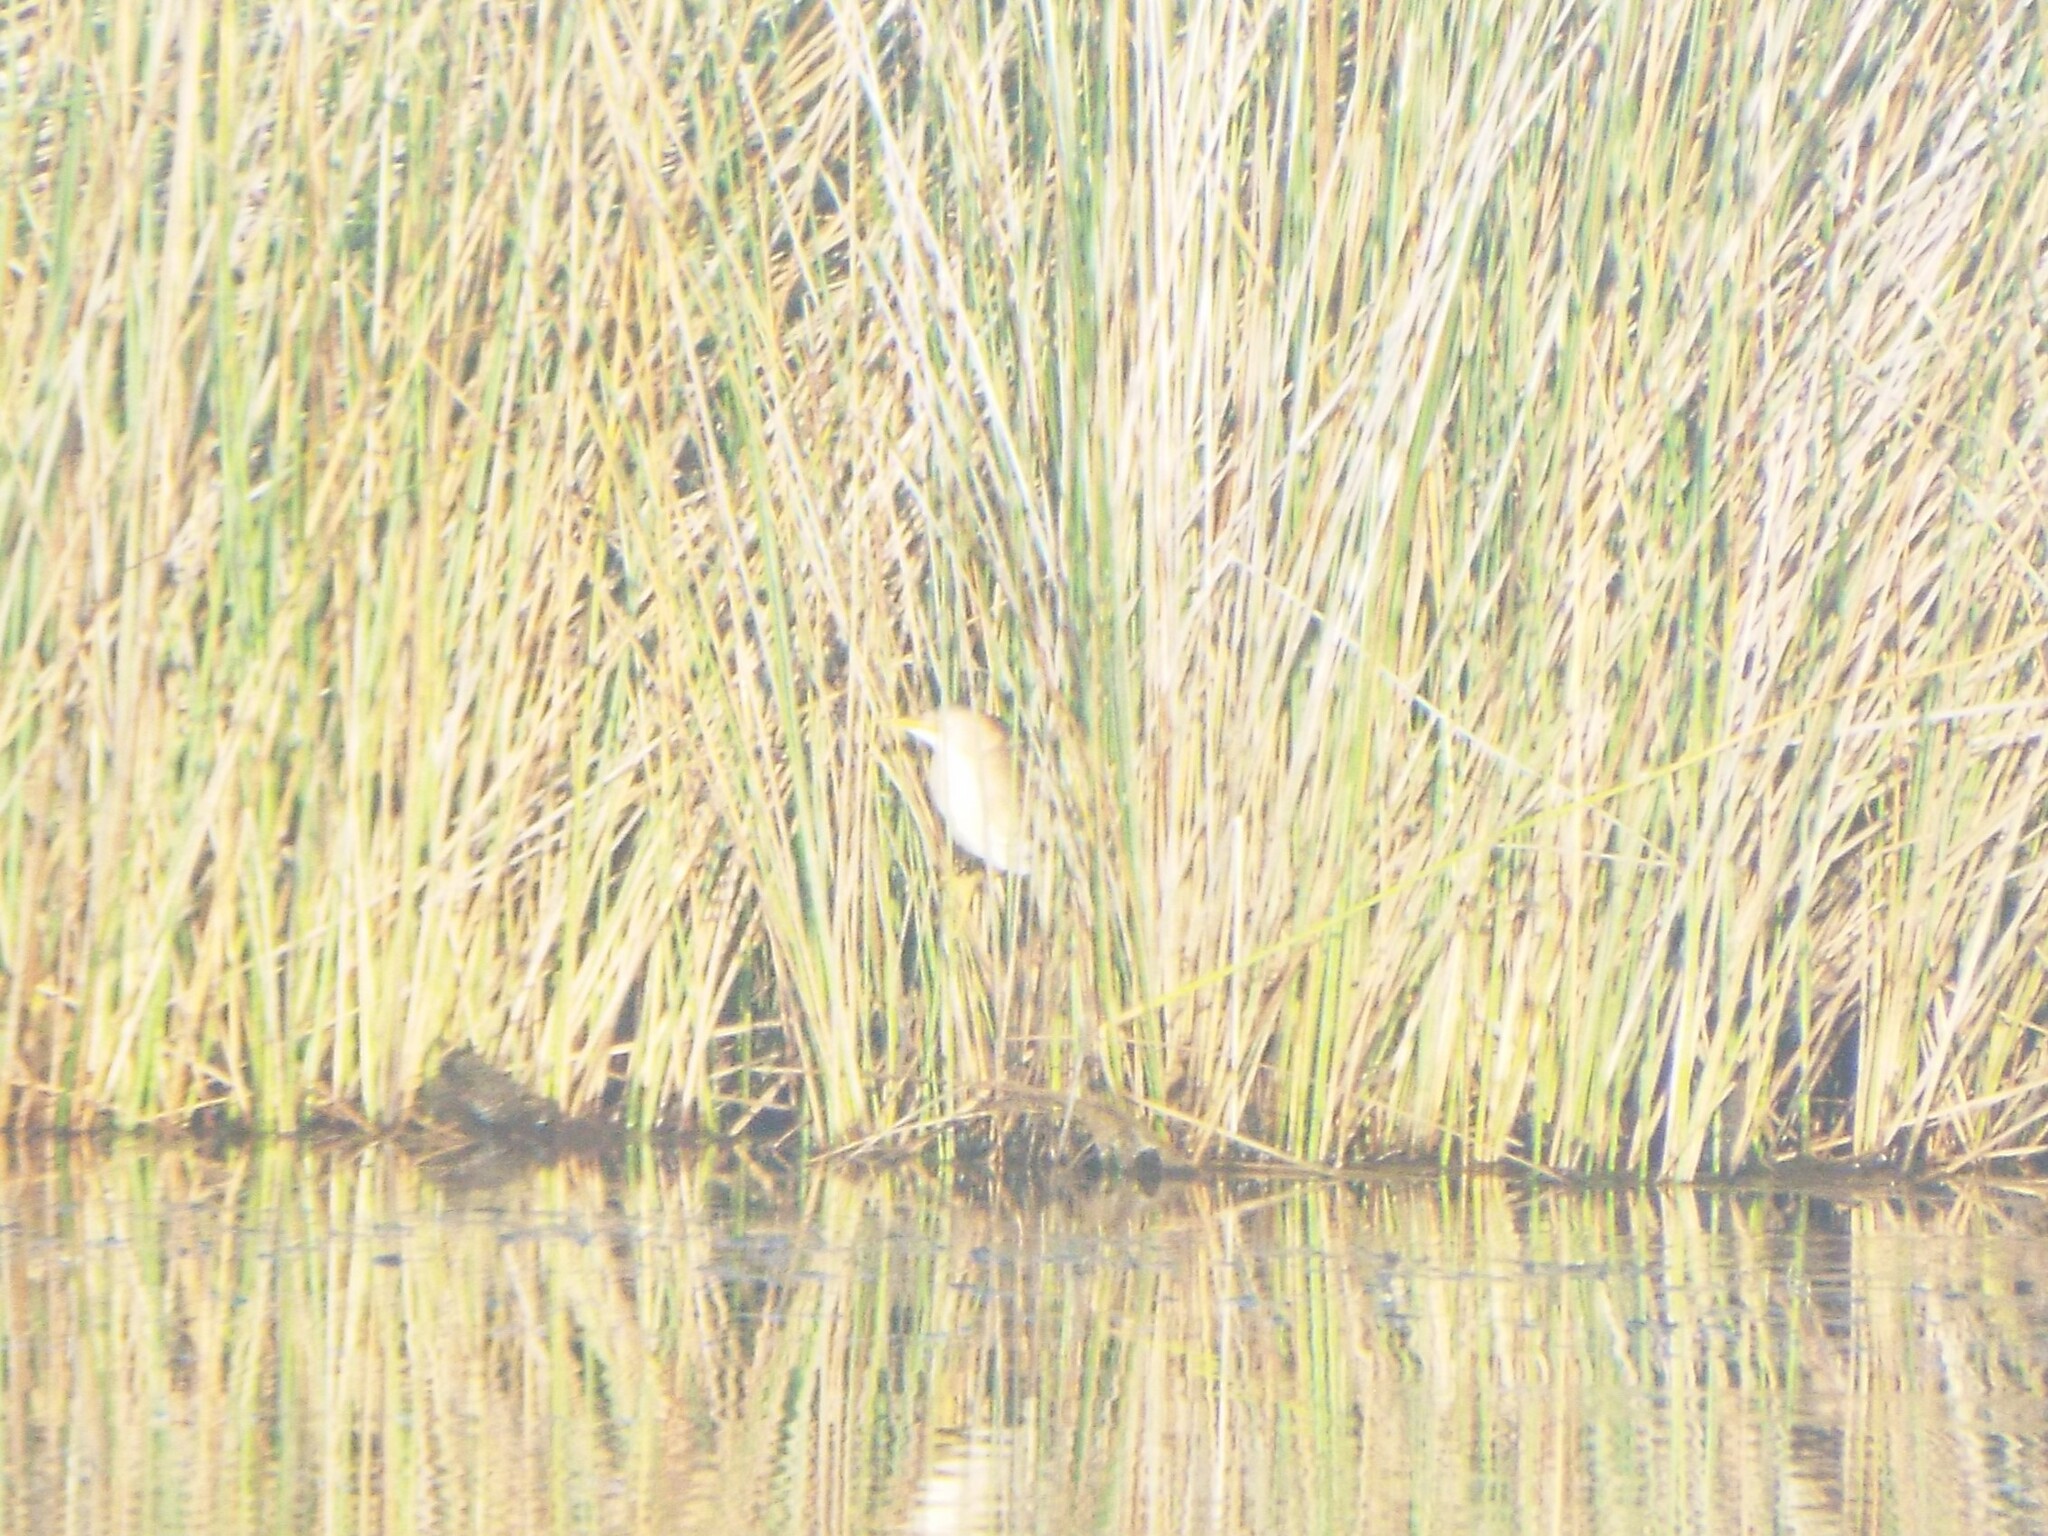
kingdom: Animalia
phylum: Chordata
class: Aves
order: Pelecaniformes
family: Ardeidae
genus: Ixobrychus
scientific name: Ixobrychus exilis
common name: Least bittern
